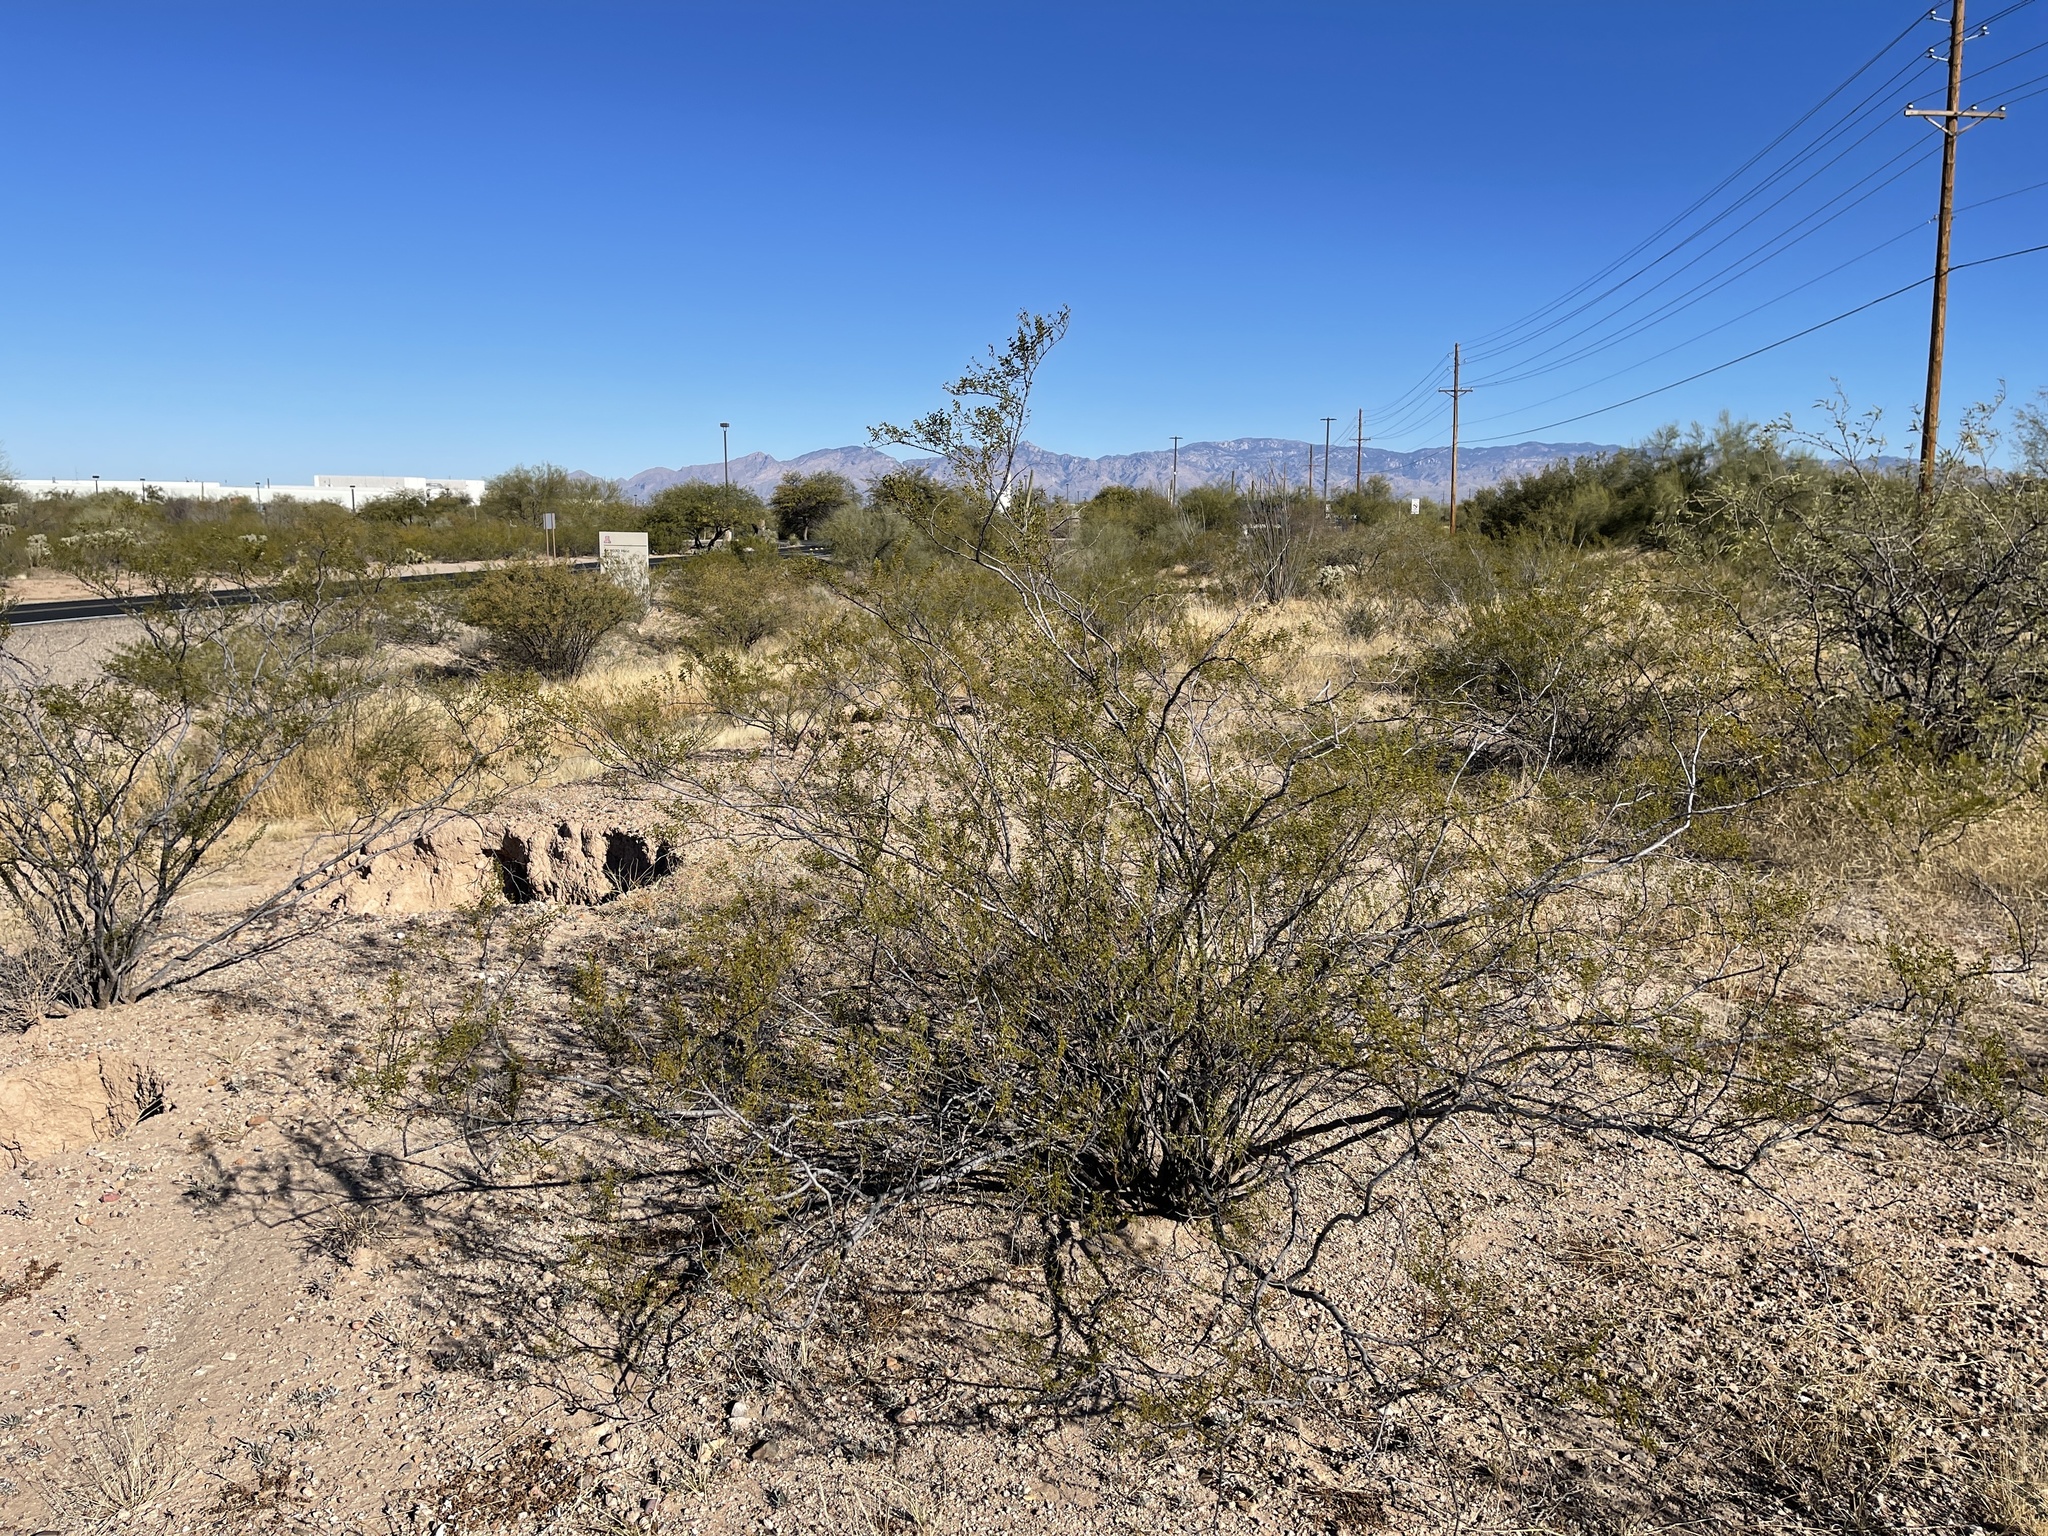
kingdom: Plantae
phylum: Tracheophyta
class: Magnoliopsida
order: Zygophyllales
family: Zygophyllaceae
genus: Larrea
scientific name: Larrea tridentata
